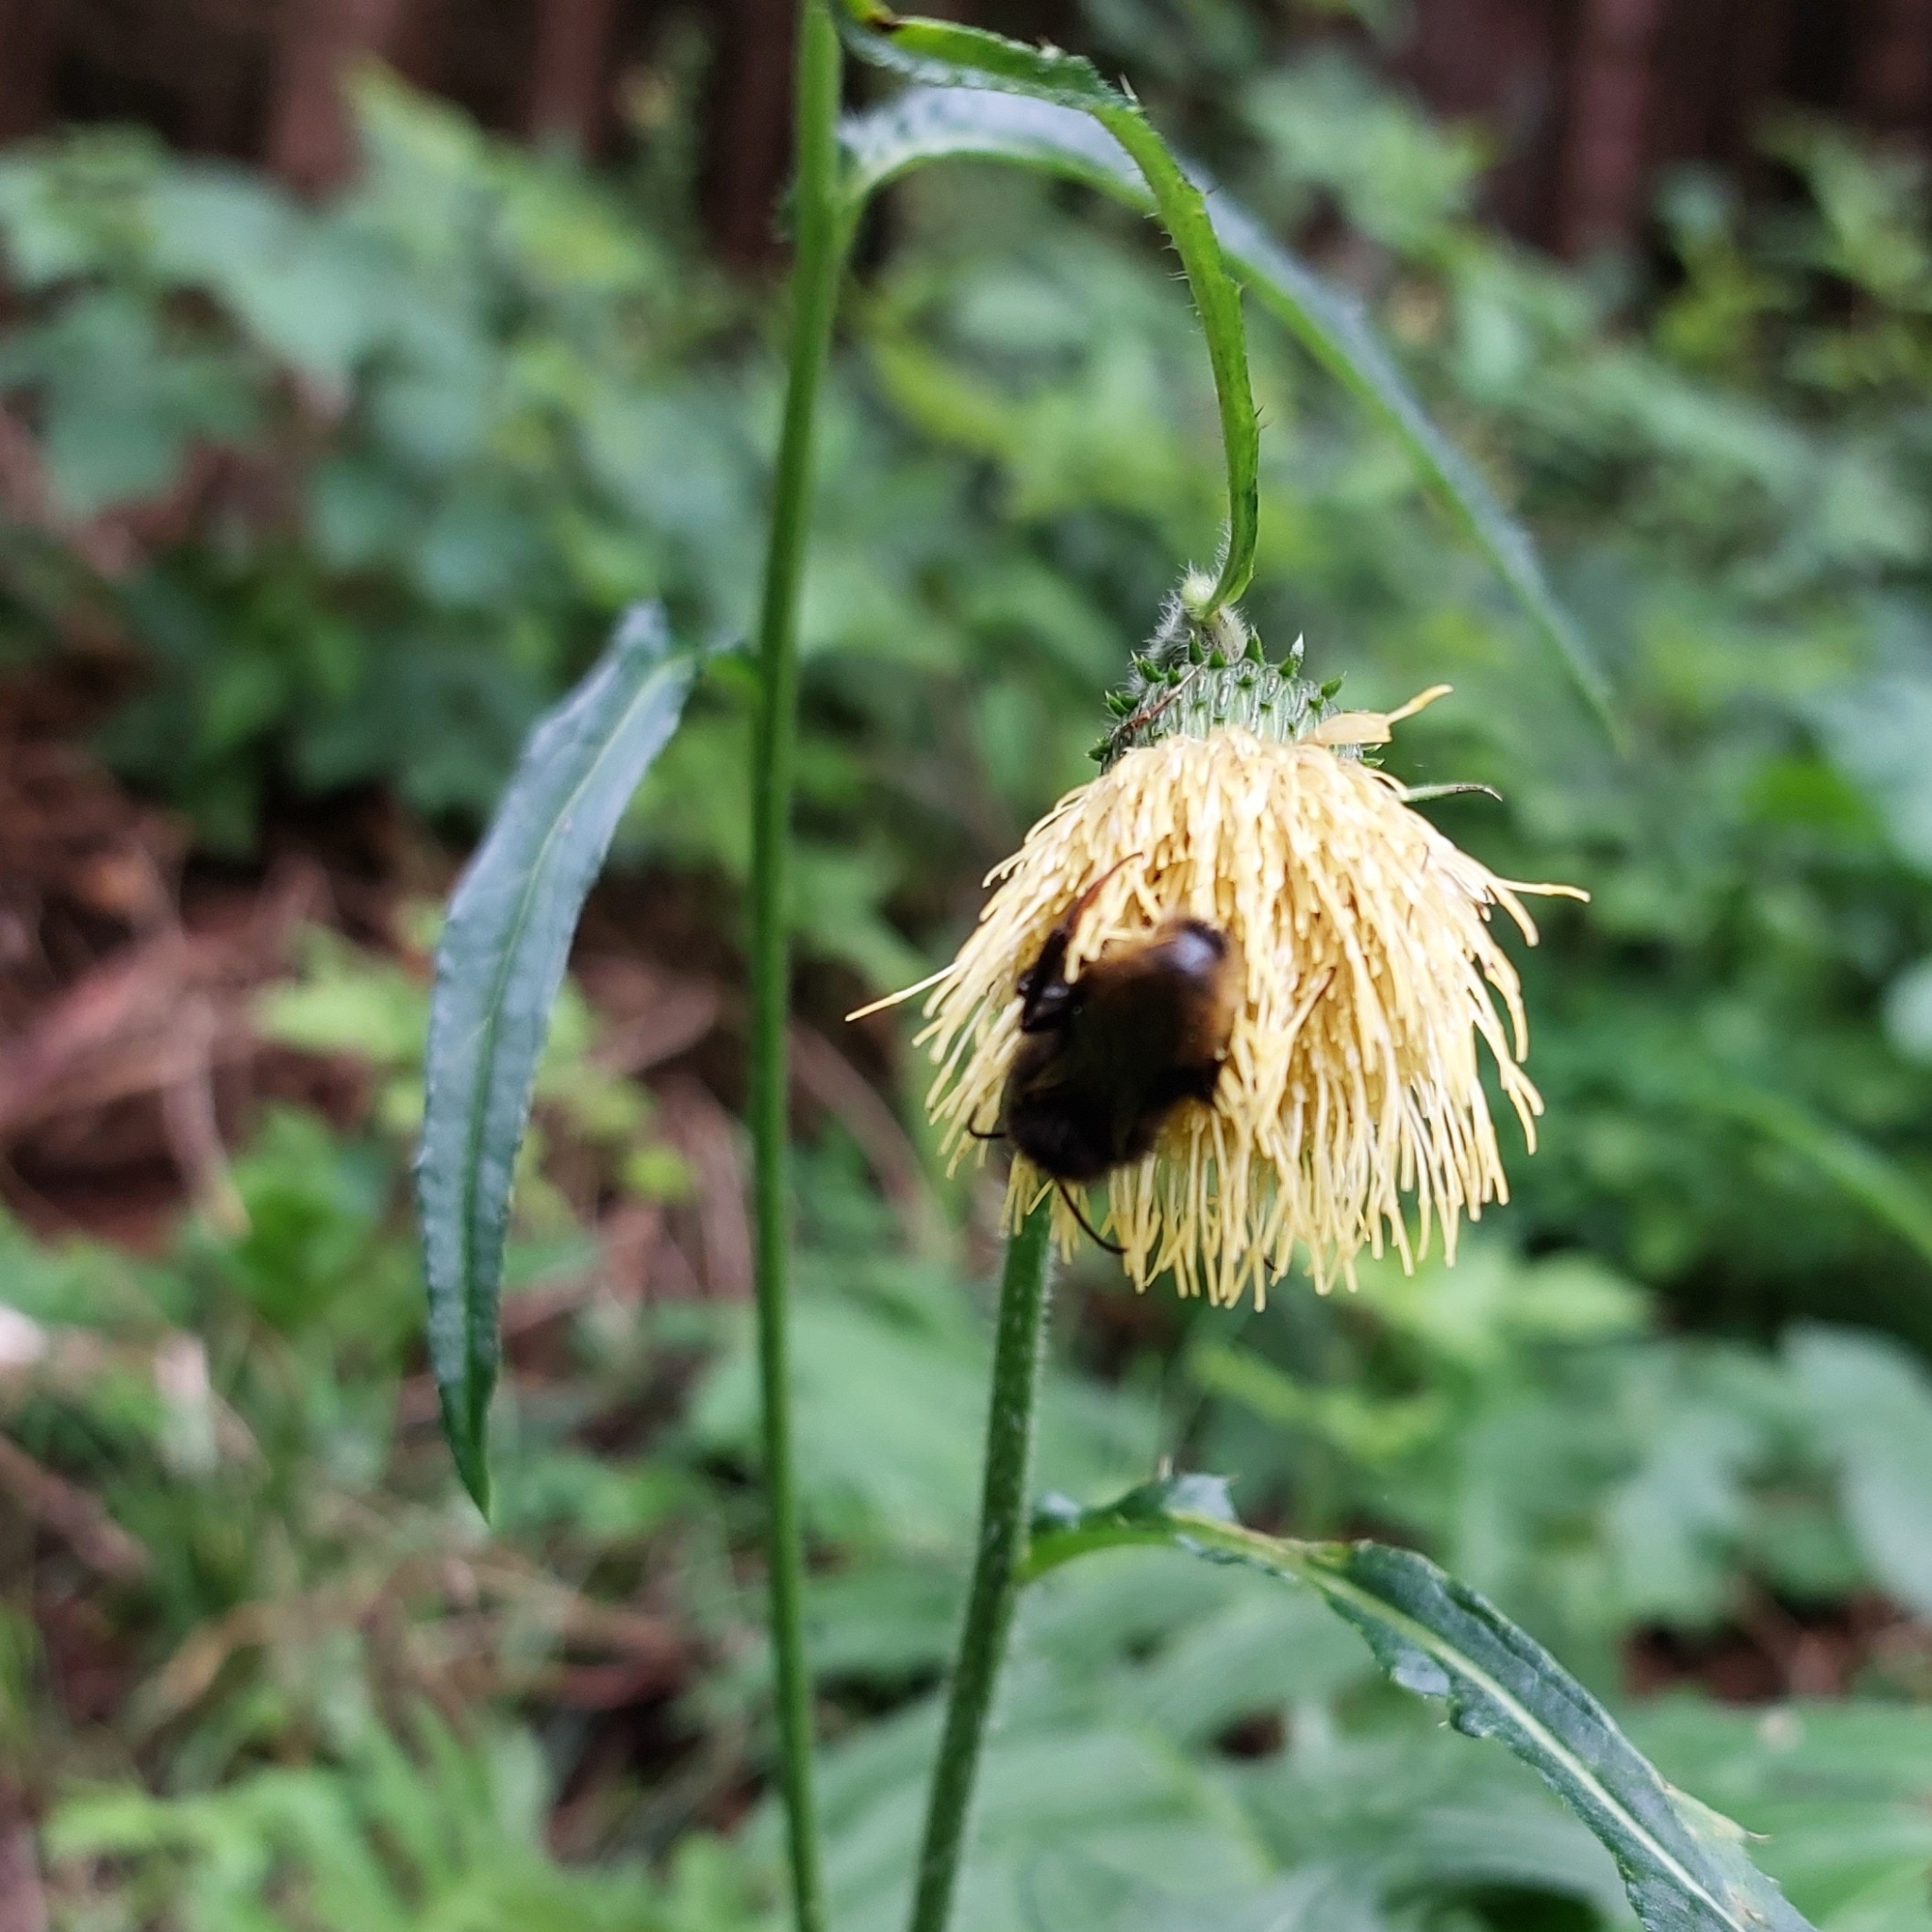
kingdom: Plantae
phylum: Tracheophyta
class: Magnoliopsida
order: Asterales
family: Asteraceae
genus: Cirsium
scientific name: Cirsium erisithales
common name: Yellow thistle
